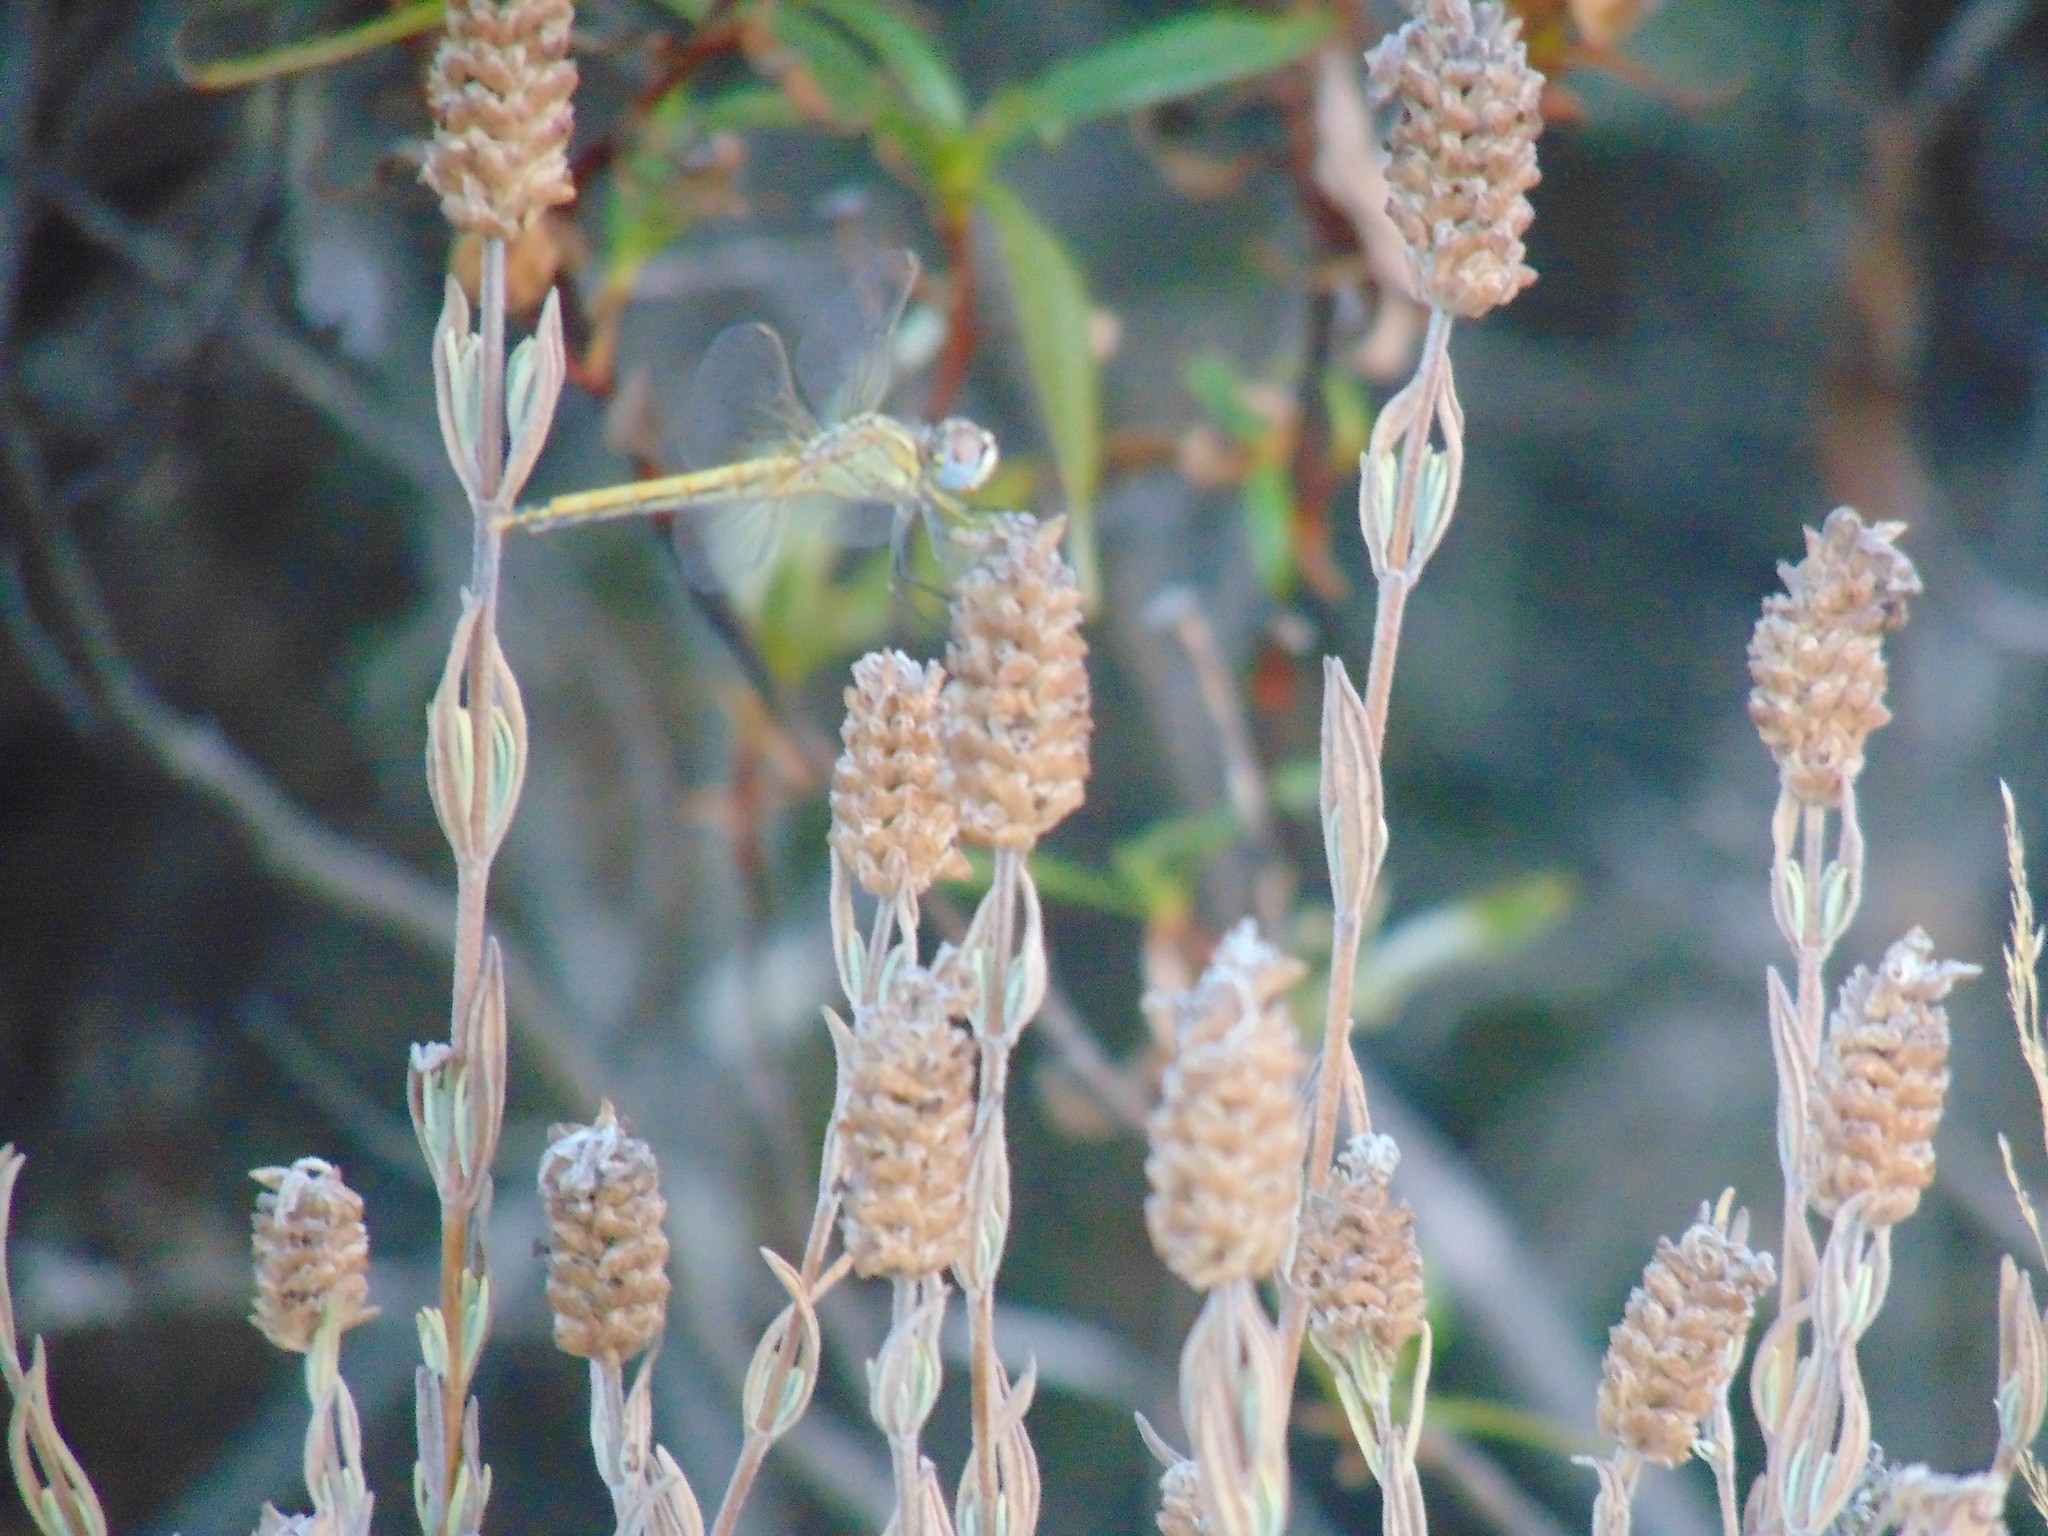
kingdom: Animalia
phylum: Arthropoda
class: Insecta
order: Odonata
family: Libellulidae
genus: Sympetrum
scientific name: Sympetrum fonscolombii
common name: Red-veined darter
